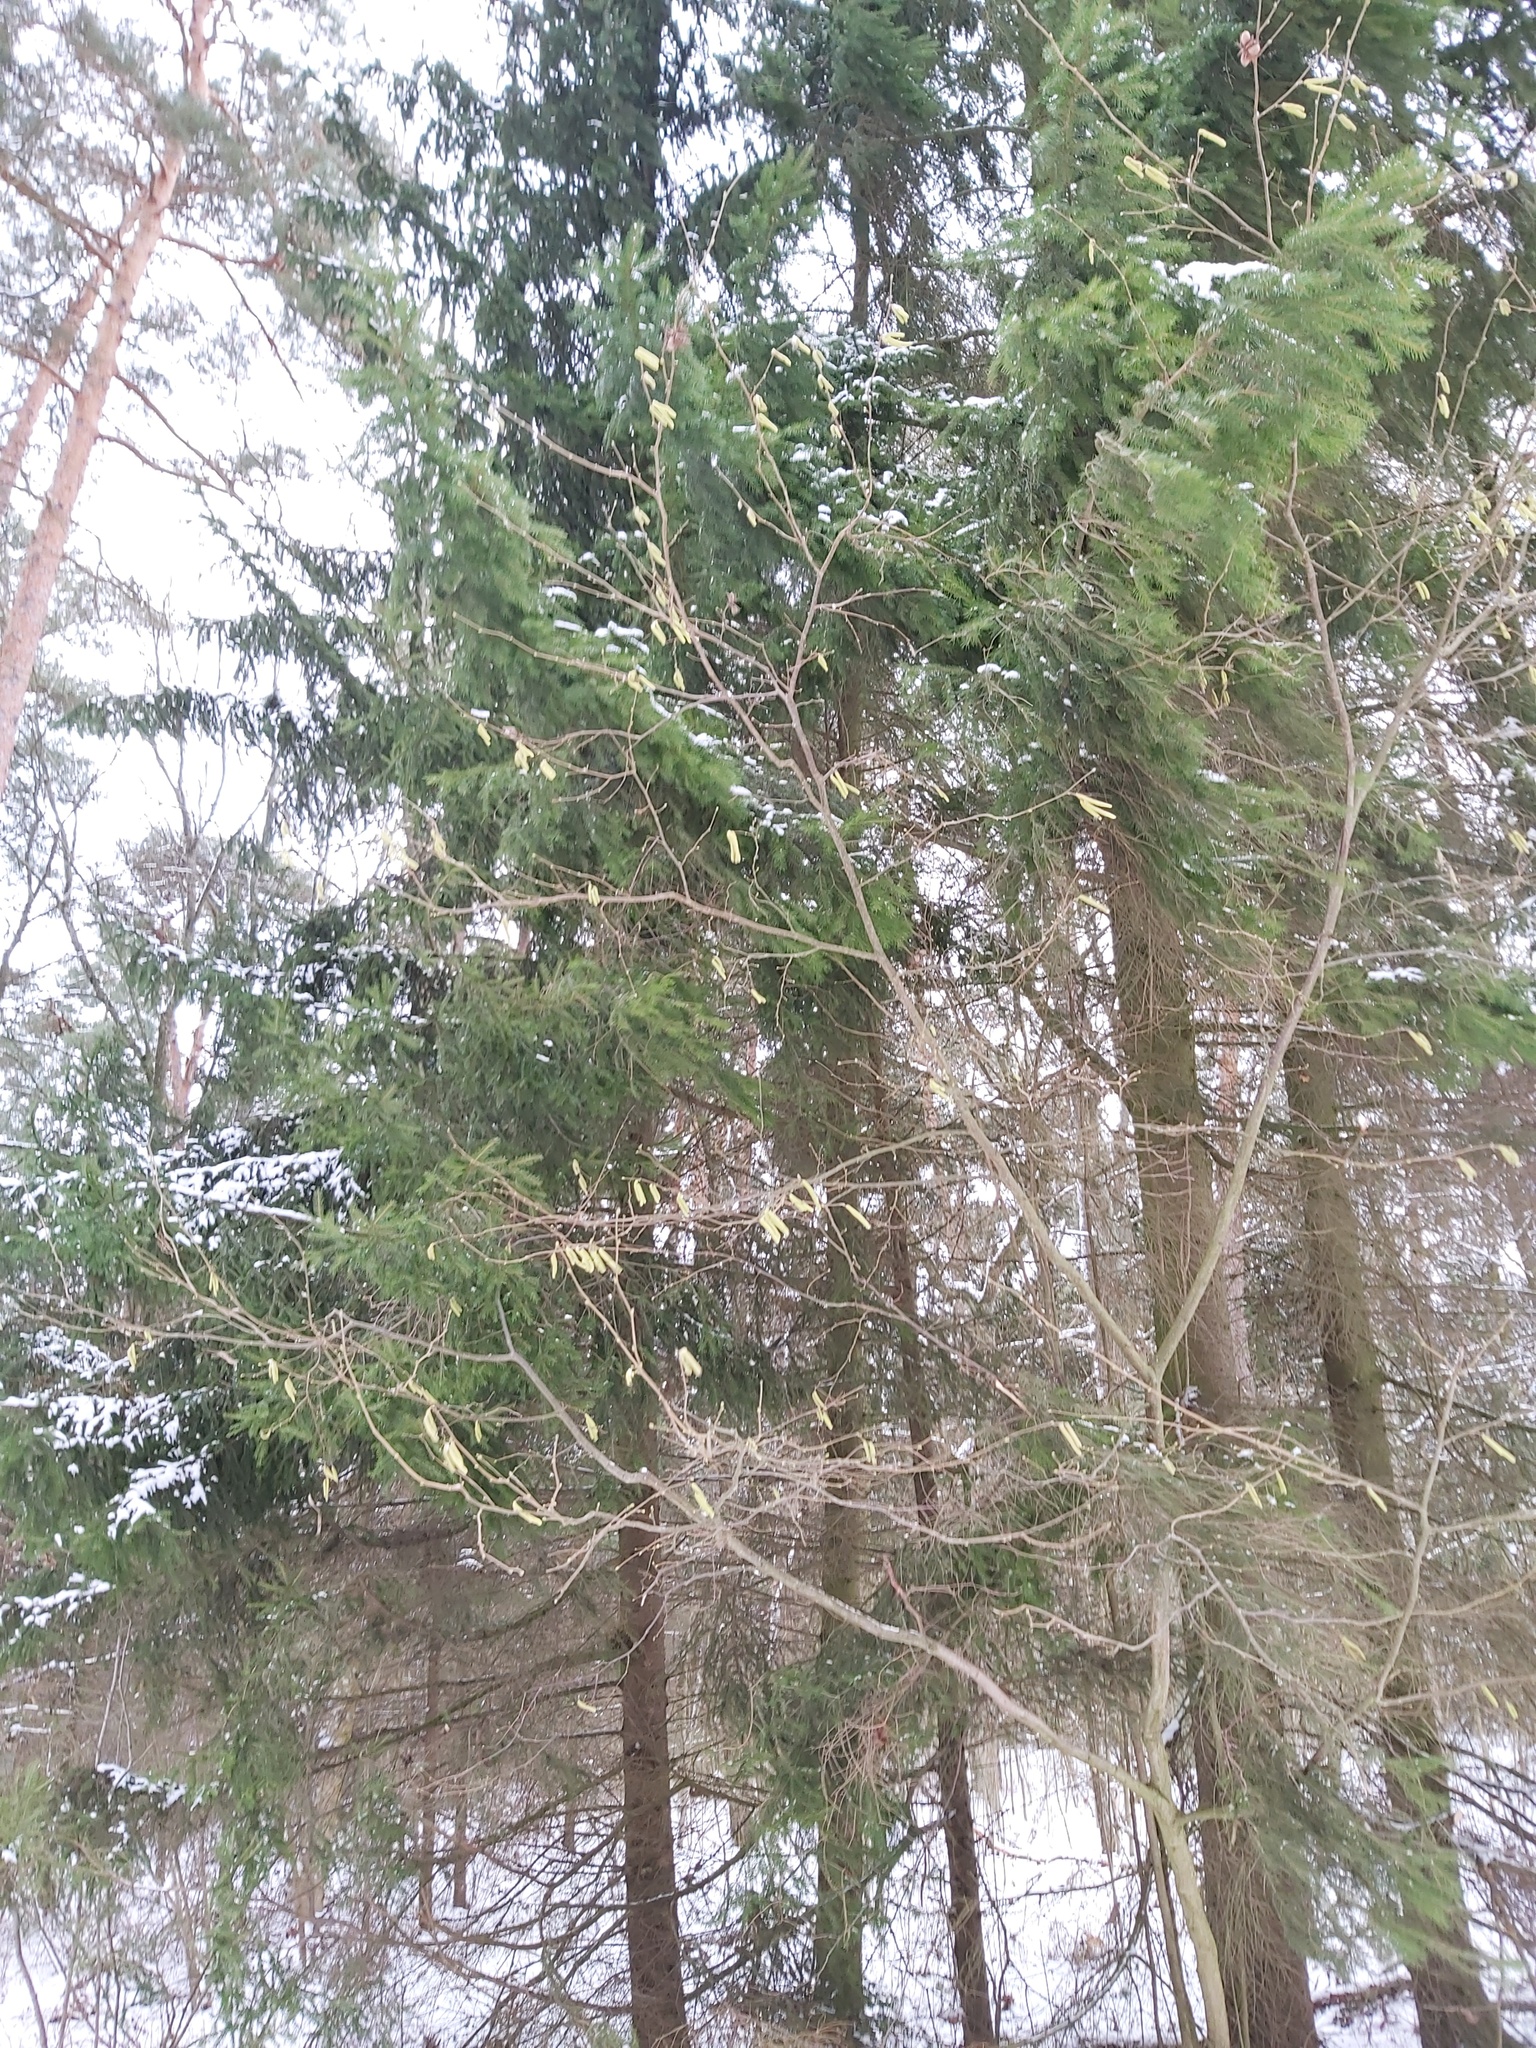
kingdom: Plantae
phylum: Tracheophyta
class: Magnoliopsida
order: Fagales
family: Betulaceae
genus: Corylus
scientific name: Corylus avellana
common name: European hazel
